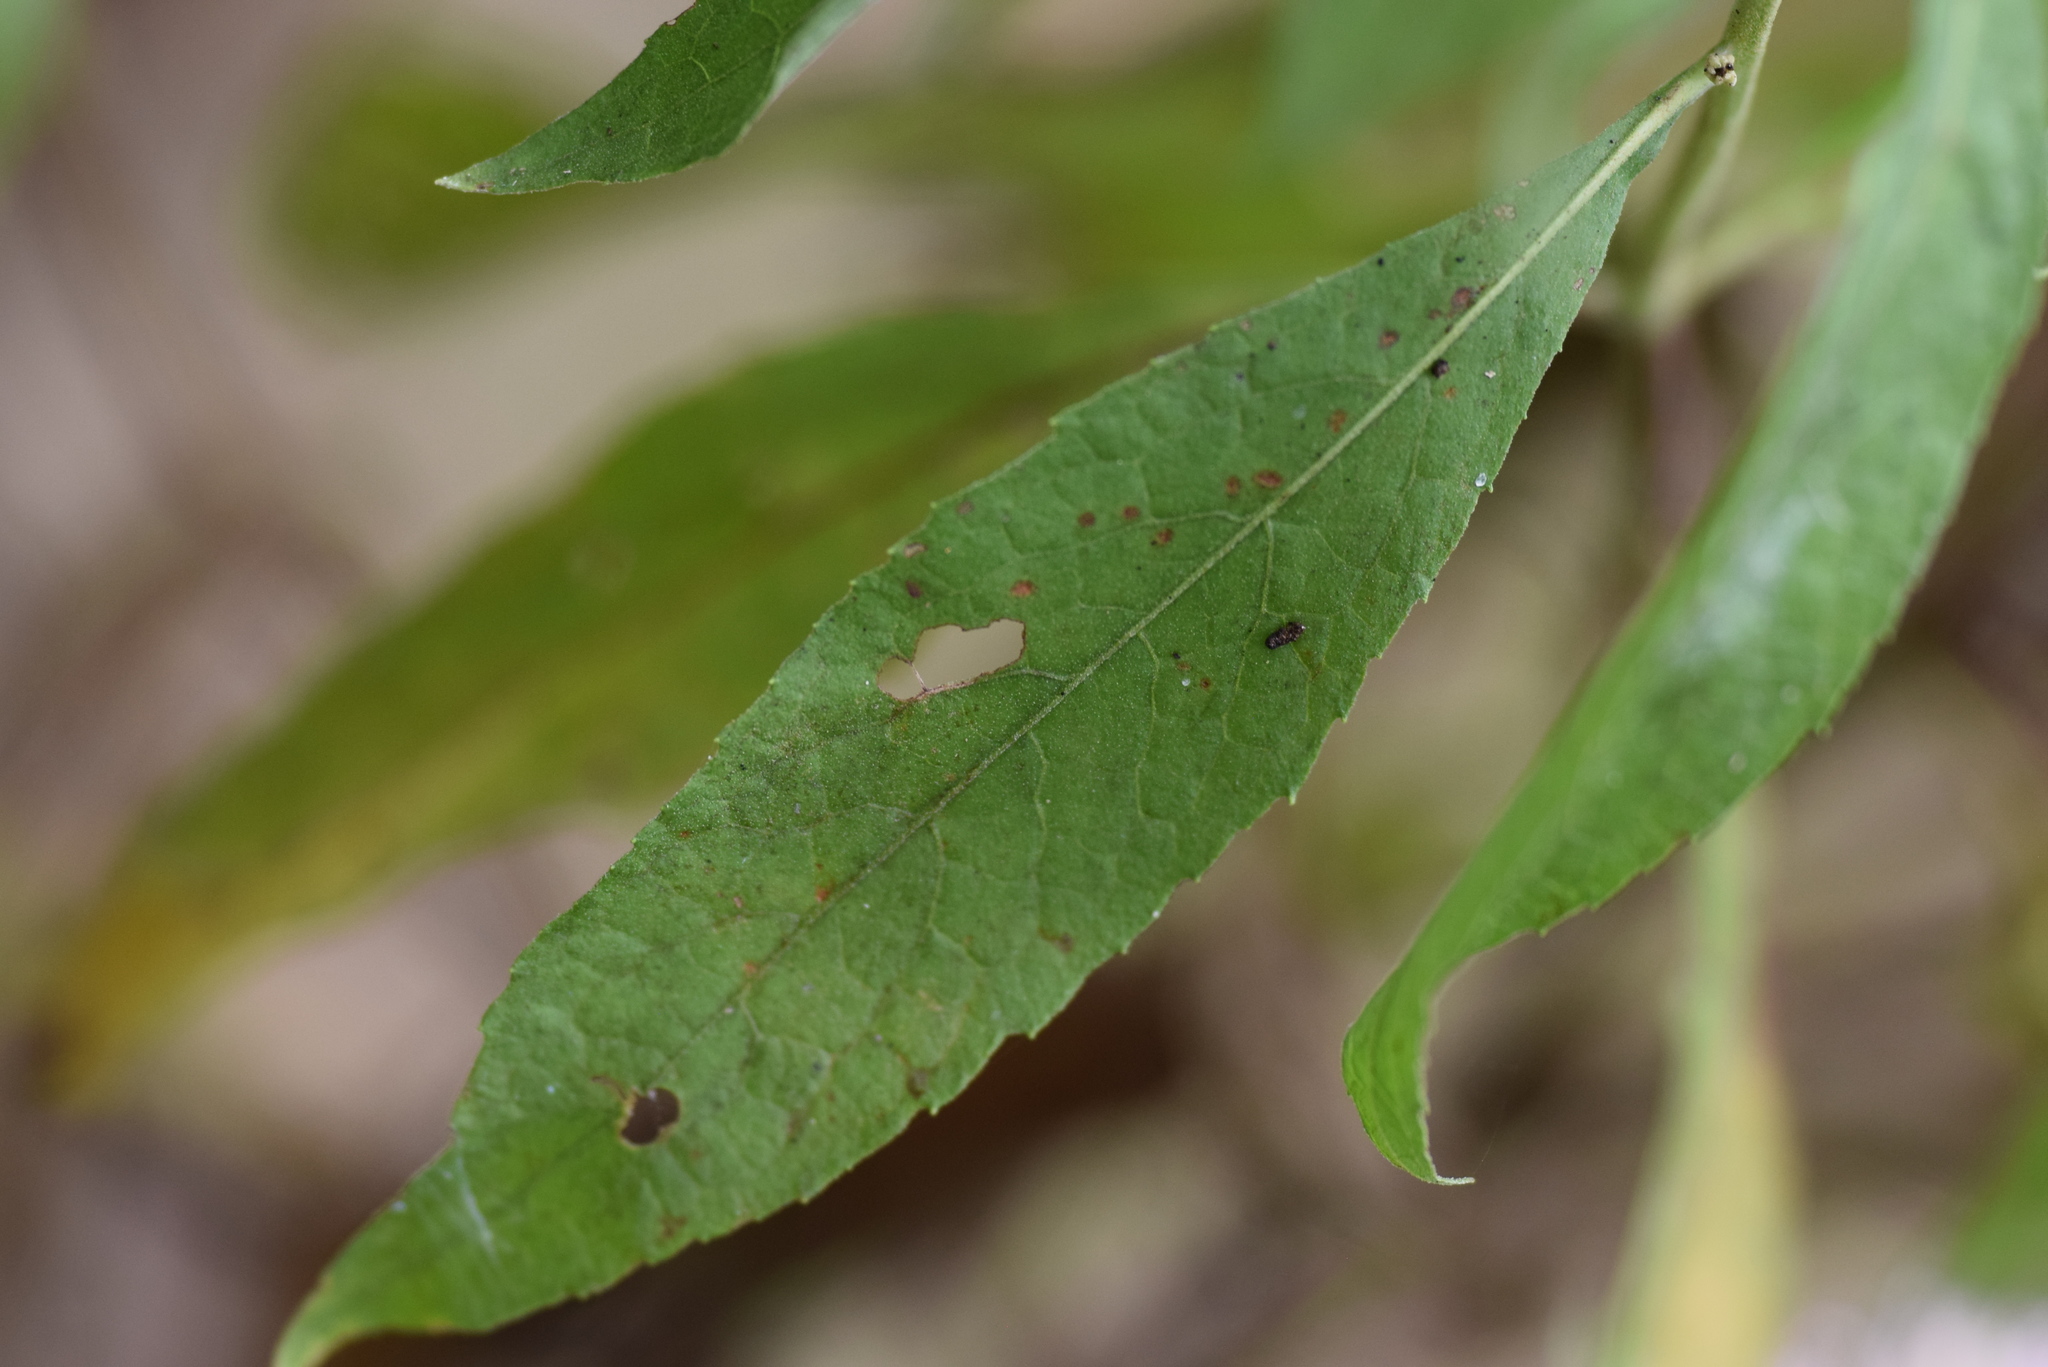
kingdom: Plantae
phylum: Tracheophyta
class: Magnoliopsida
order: Asterales
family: Asteraceae
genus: Pluchea
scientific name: Pluchea camphorata
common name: Camphor pluchea
